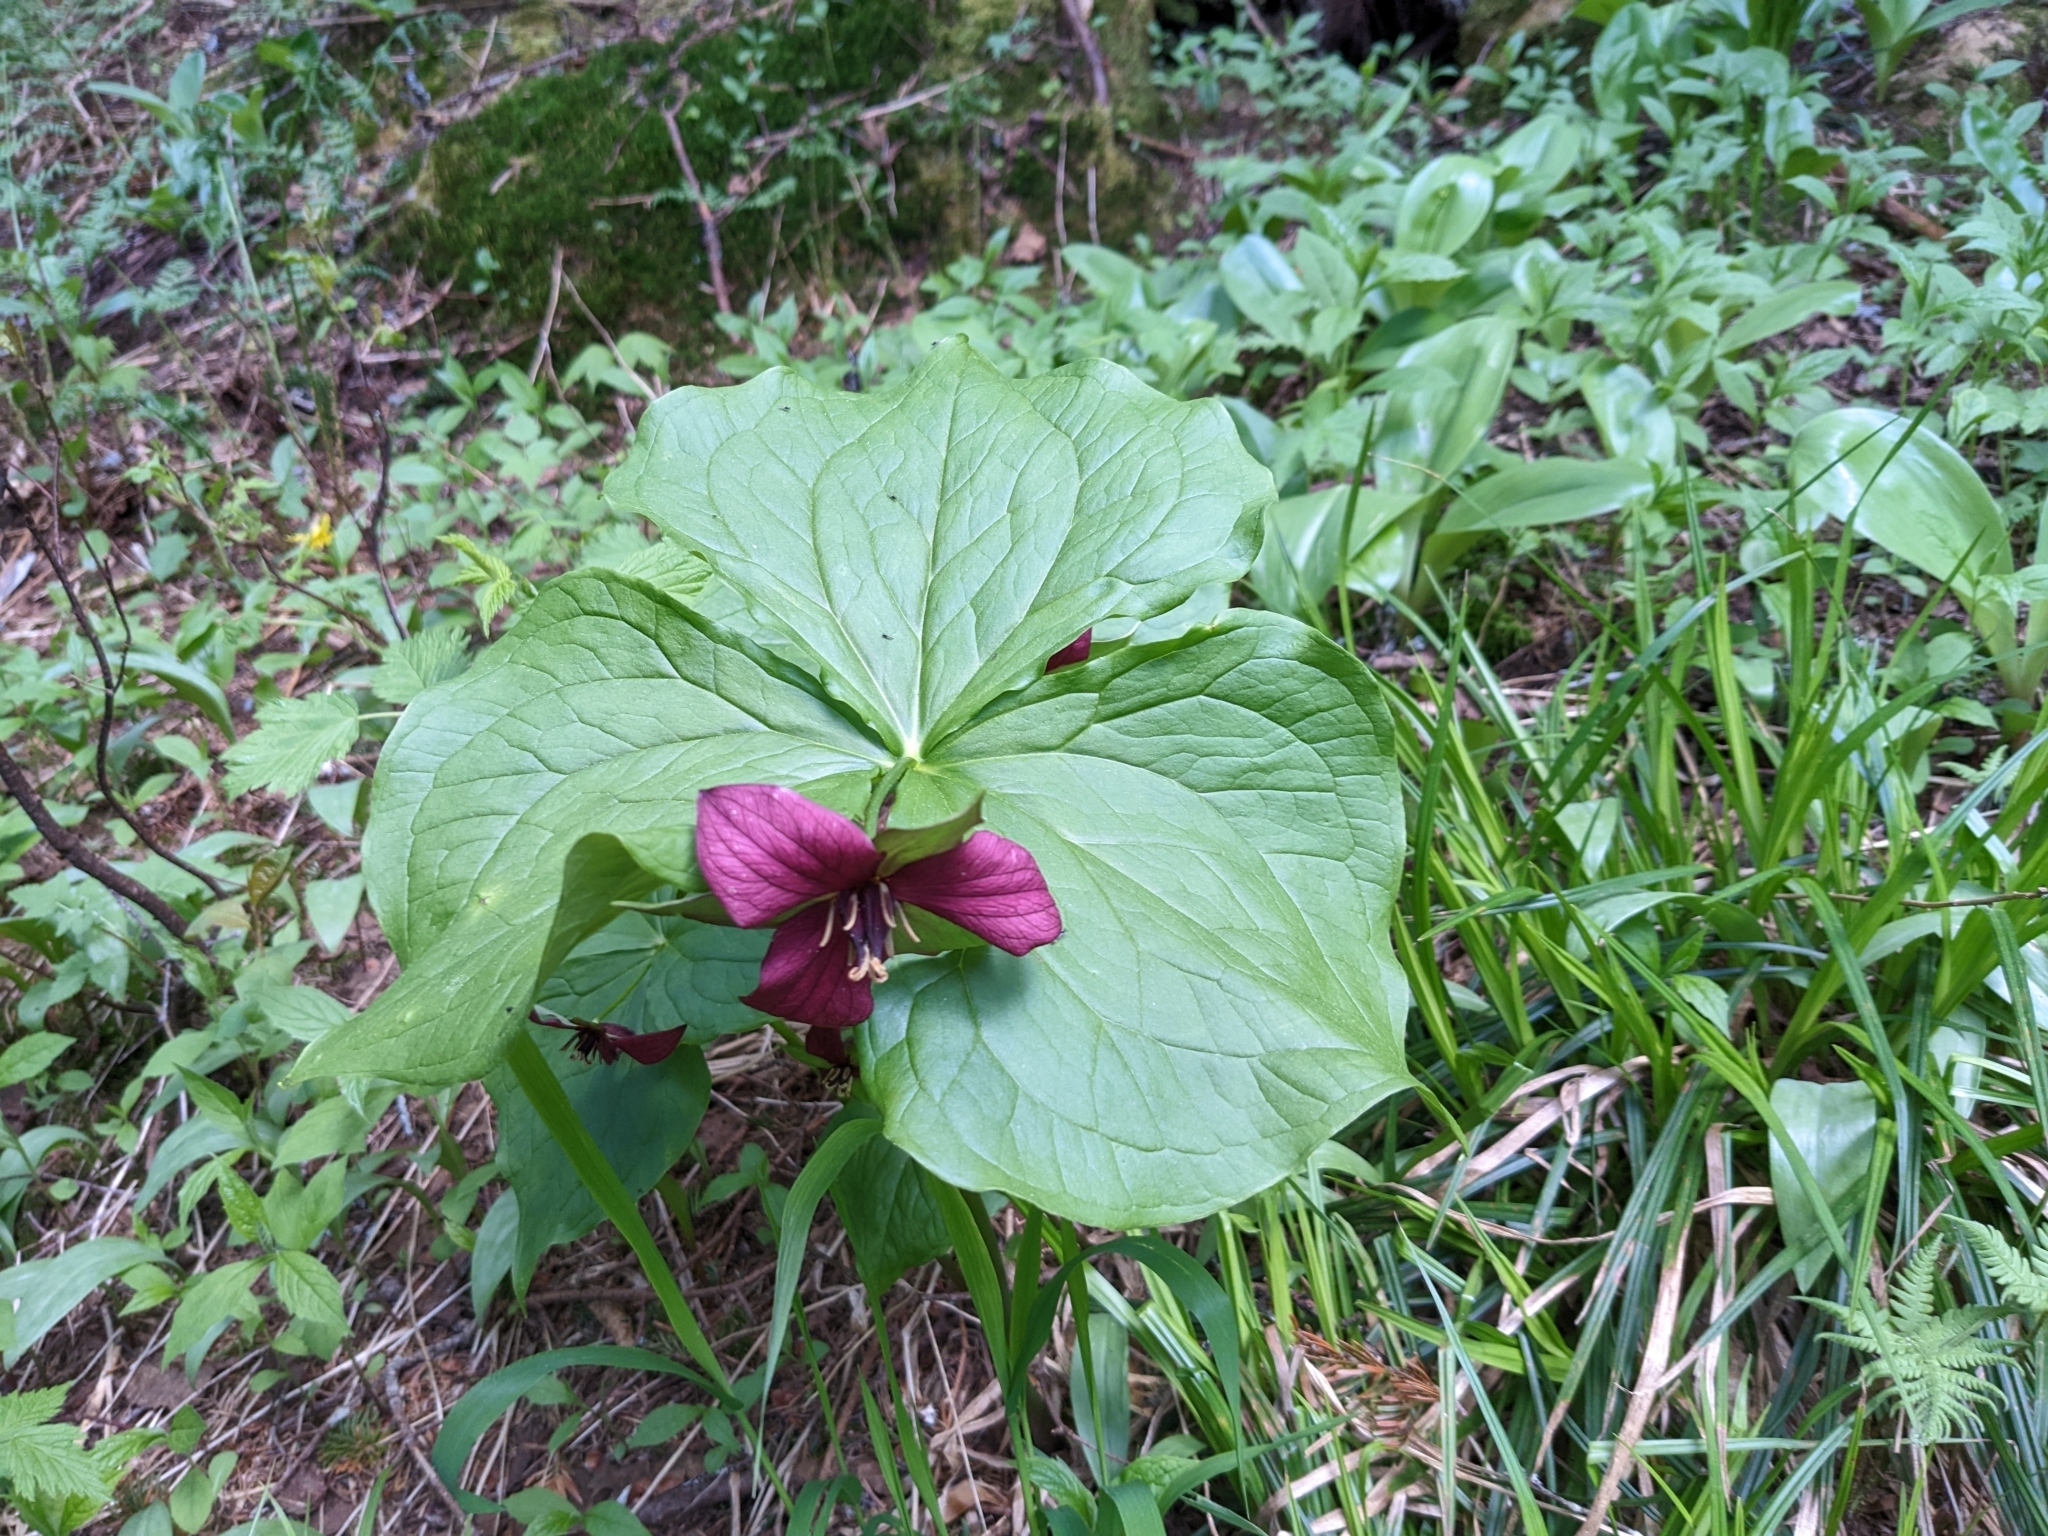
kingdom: Plantae
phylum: Tracheophyta
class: Liliopsida
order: Liliales
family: Melanthiaceae
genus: Trillium
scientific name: Trillium erectum
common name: Purple trillium
